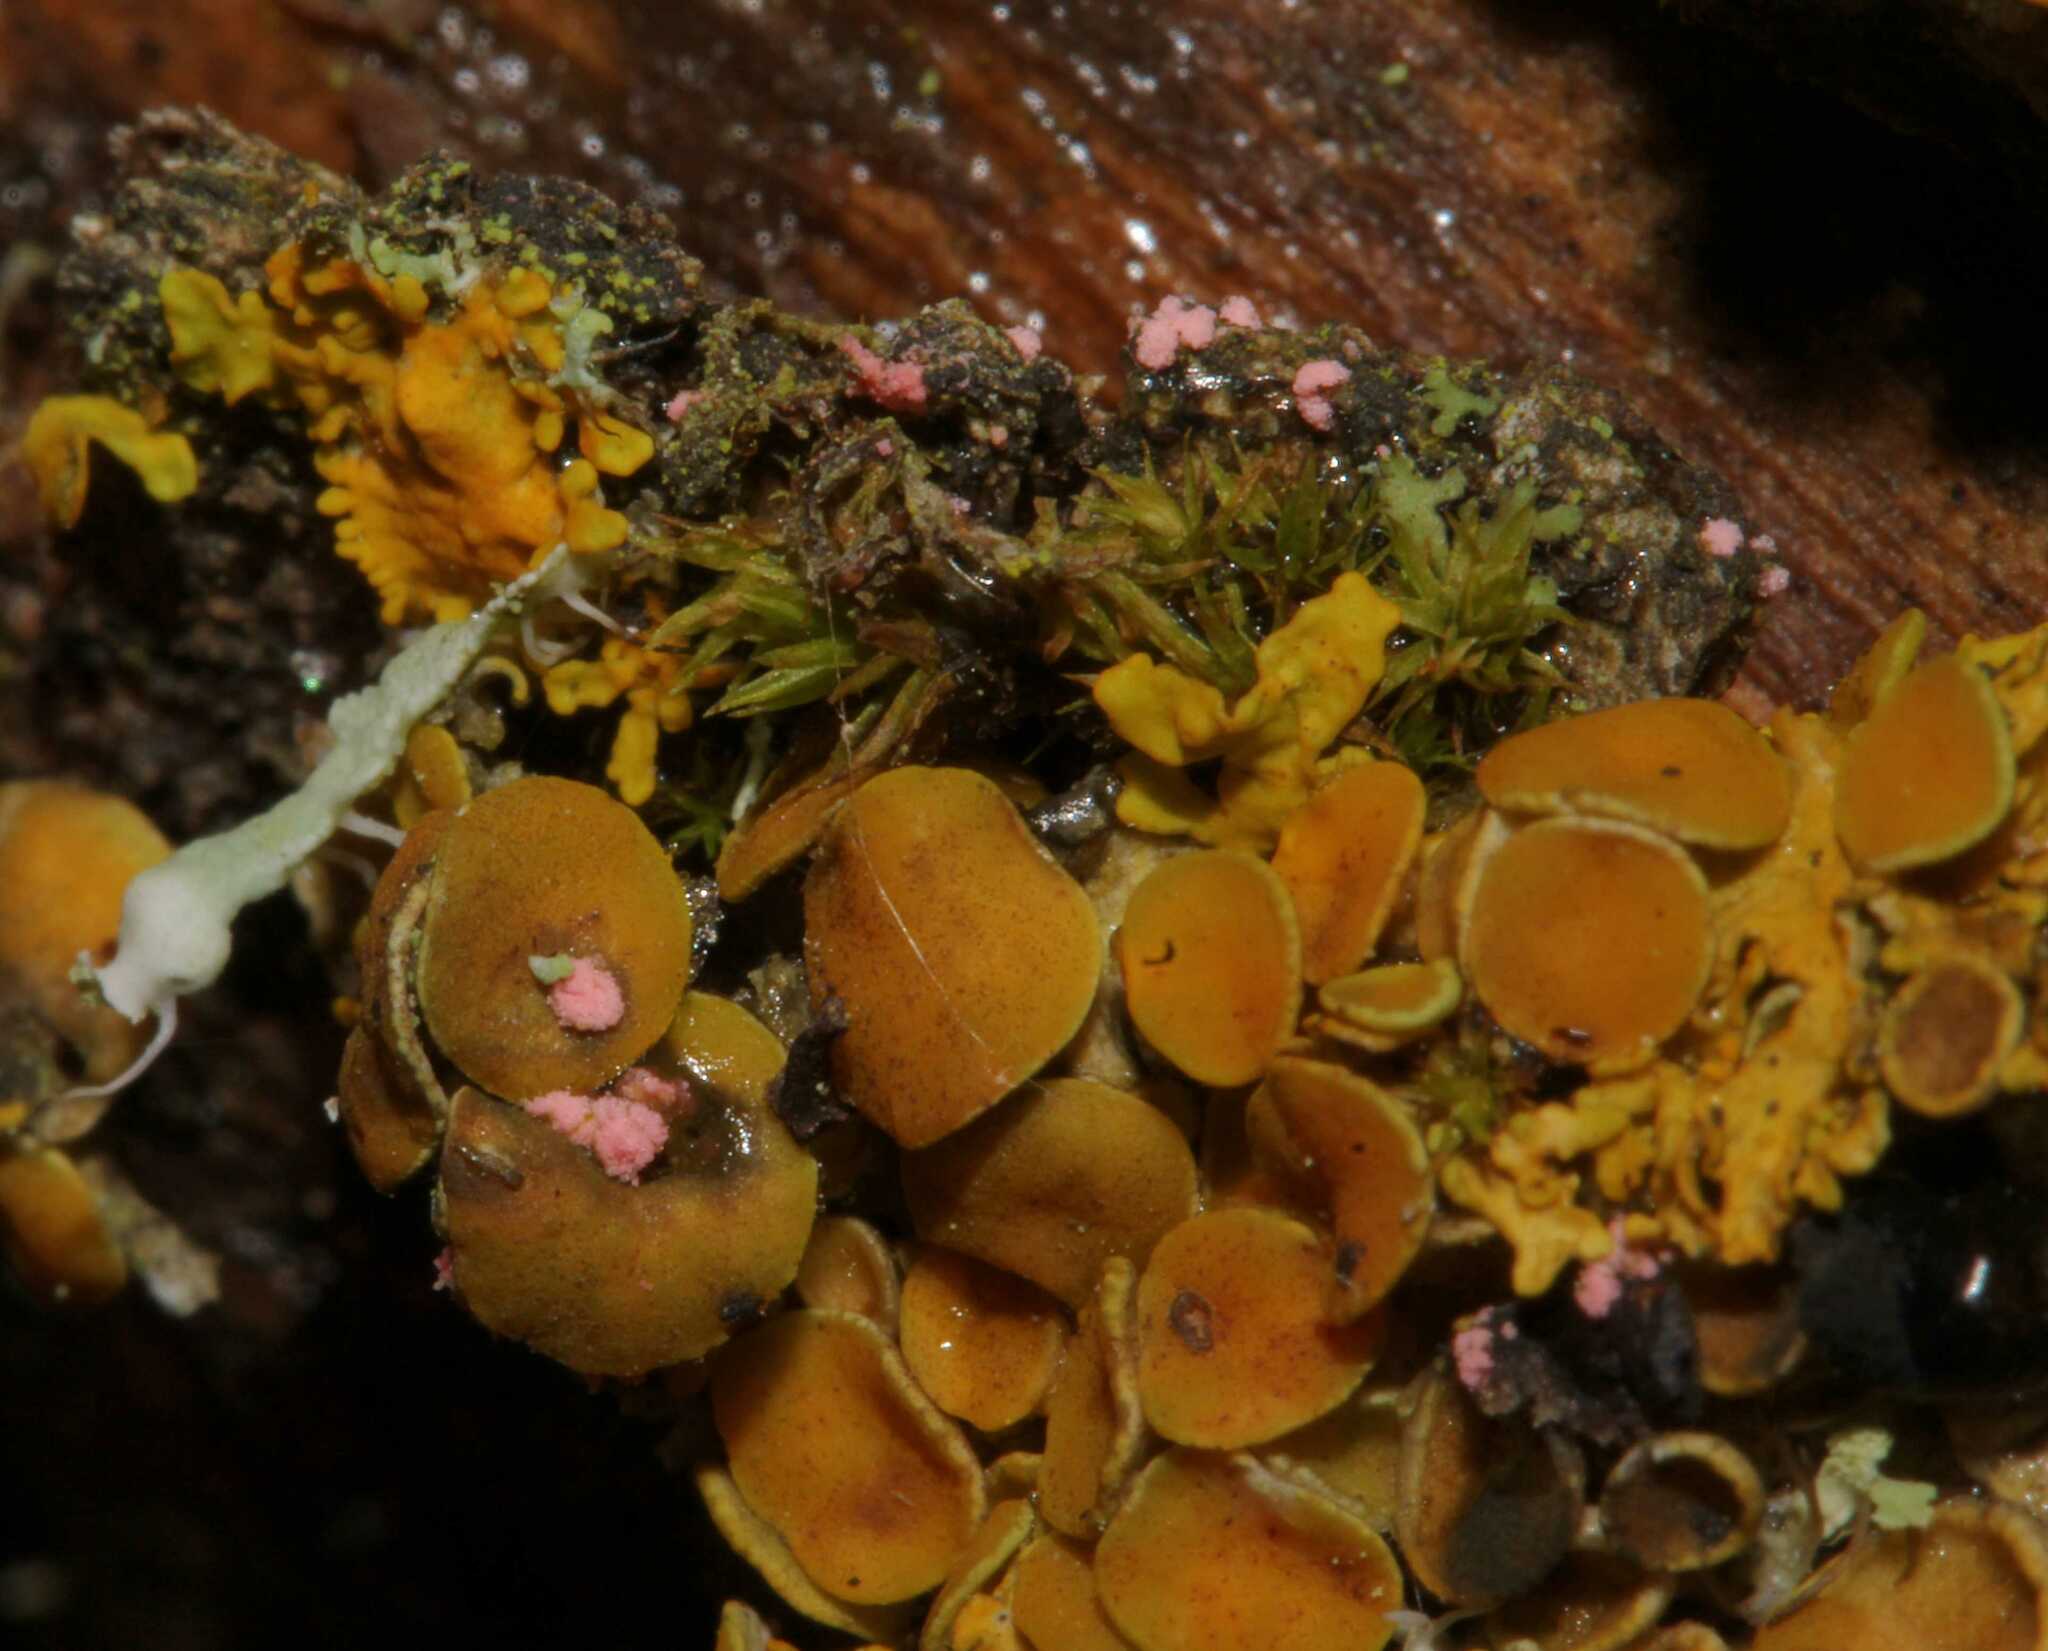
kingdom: Fungi
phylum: Ascomycota
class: Sordariomycetes
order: Hypocreales
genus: Illosporiopsis
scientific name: Illosporiopsis christiansenii
